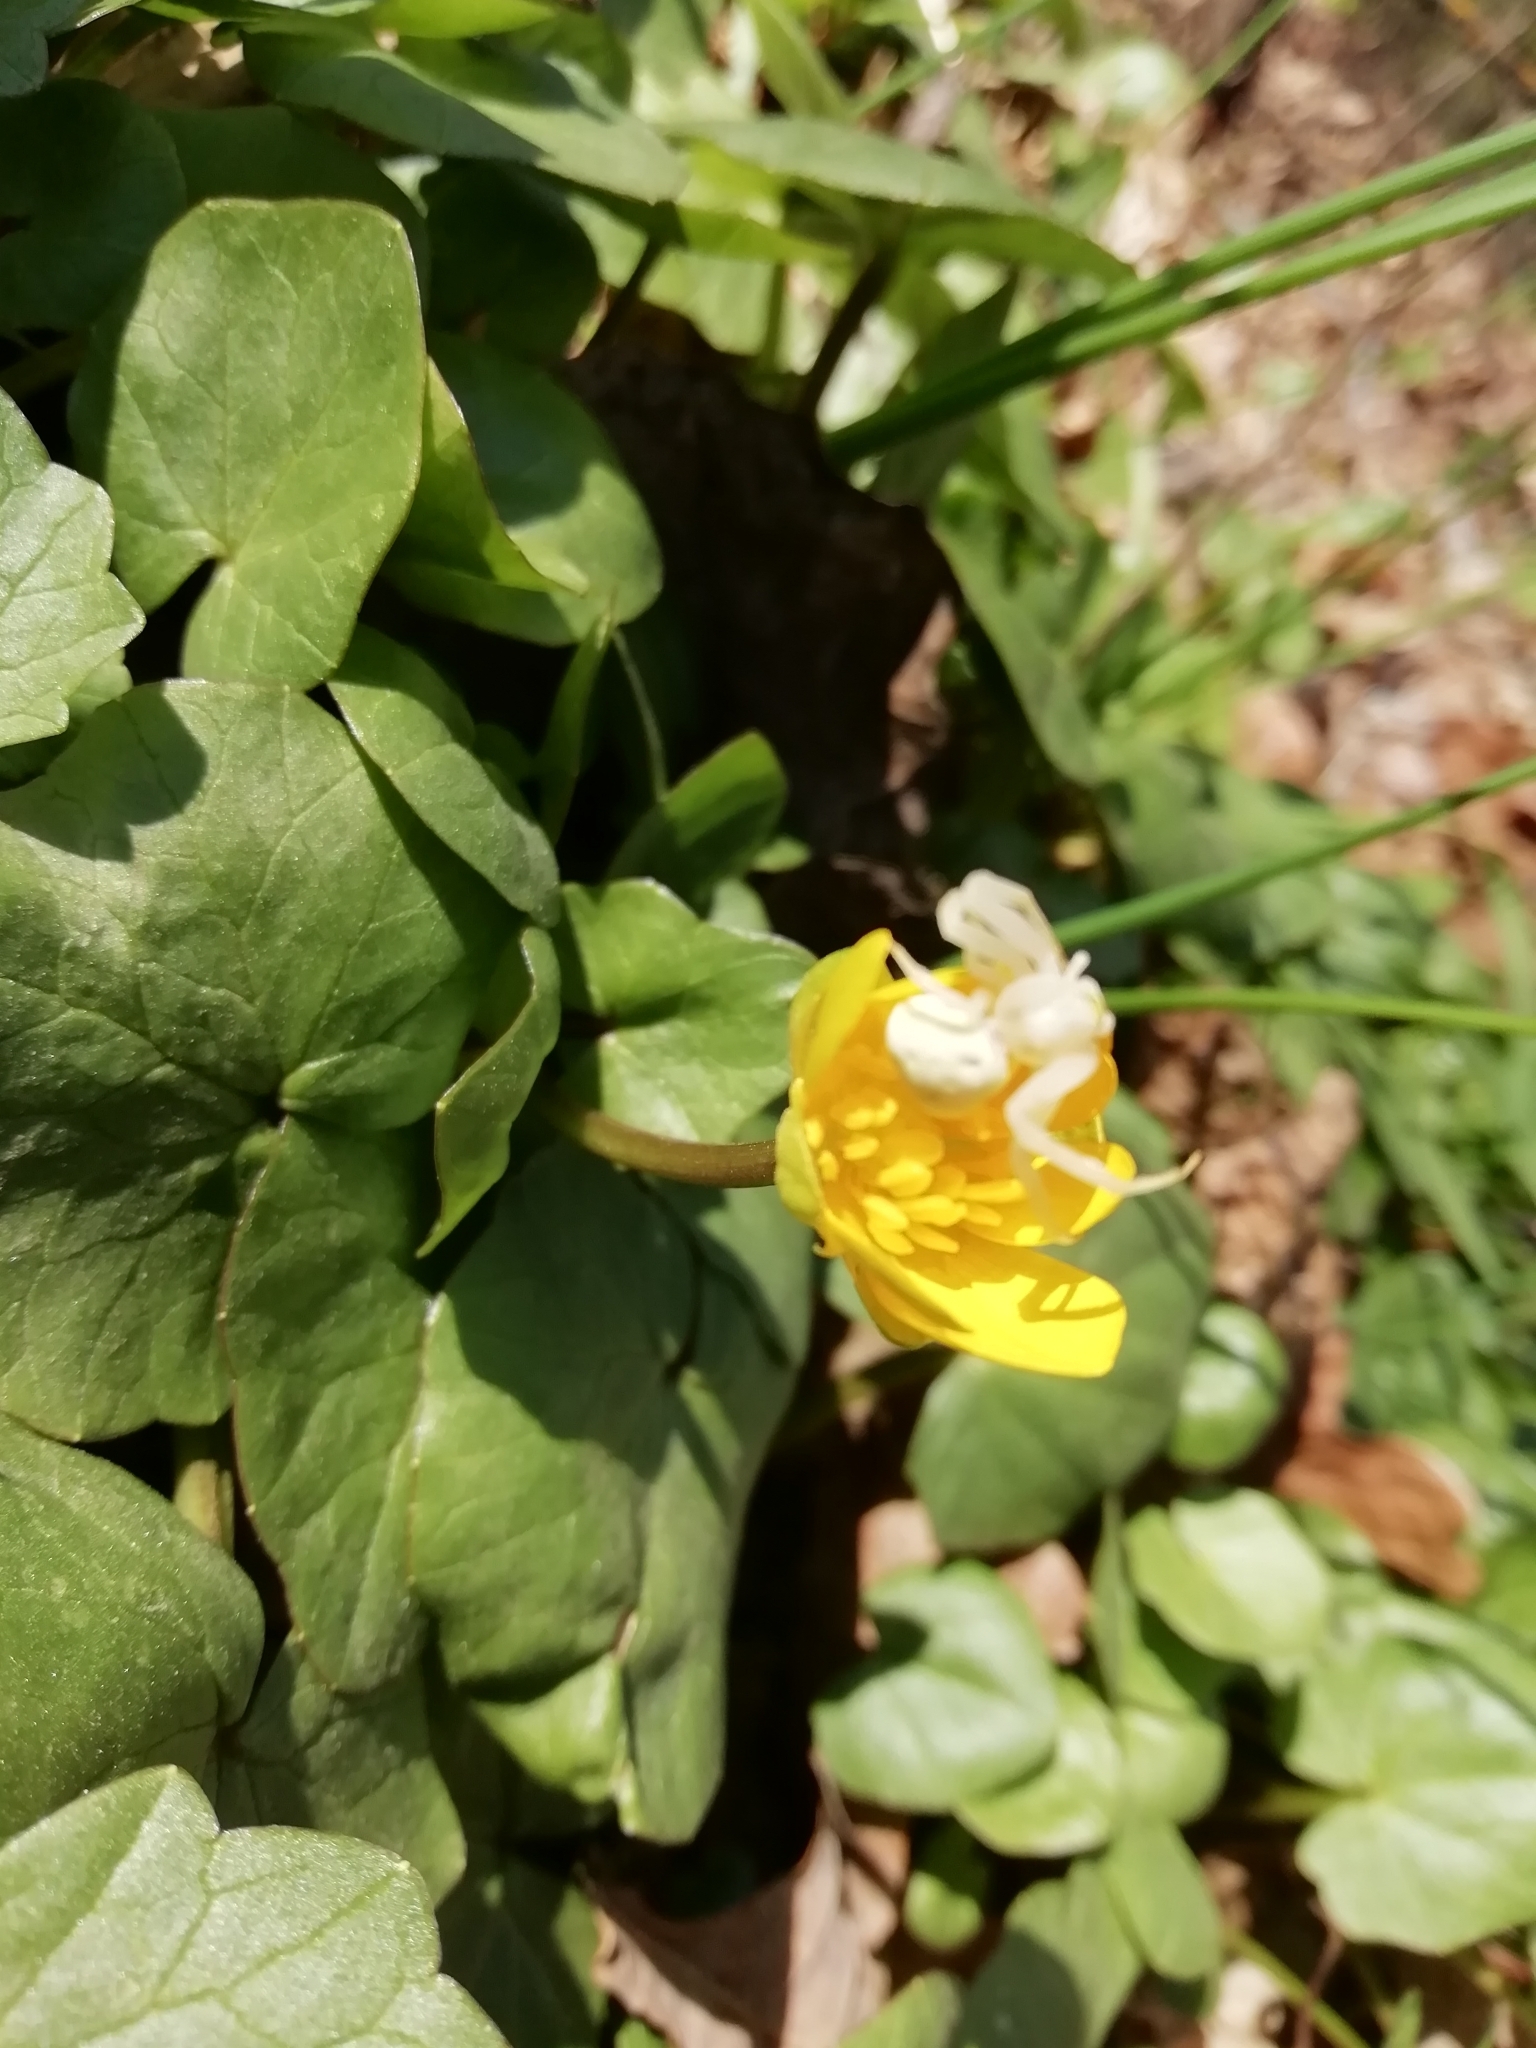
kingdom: Animalia
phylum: Arthropoda
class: Arachnida
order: Araneae
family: Thomisidae
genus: Misumena
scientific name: Misumena vatia
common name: Goldenrod crab spider
